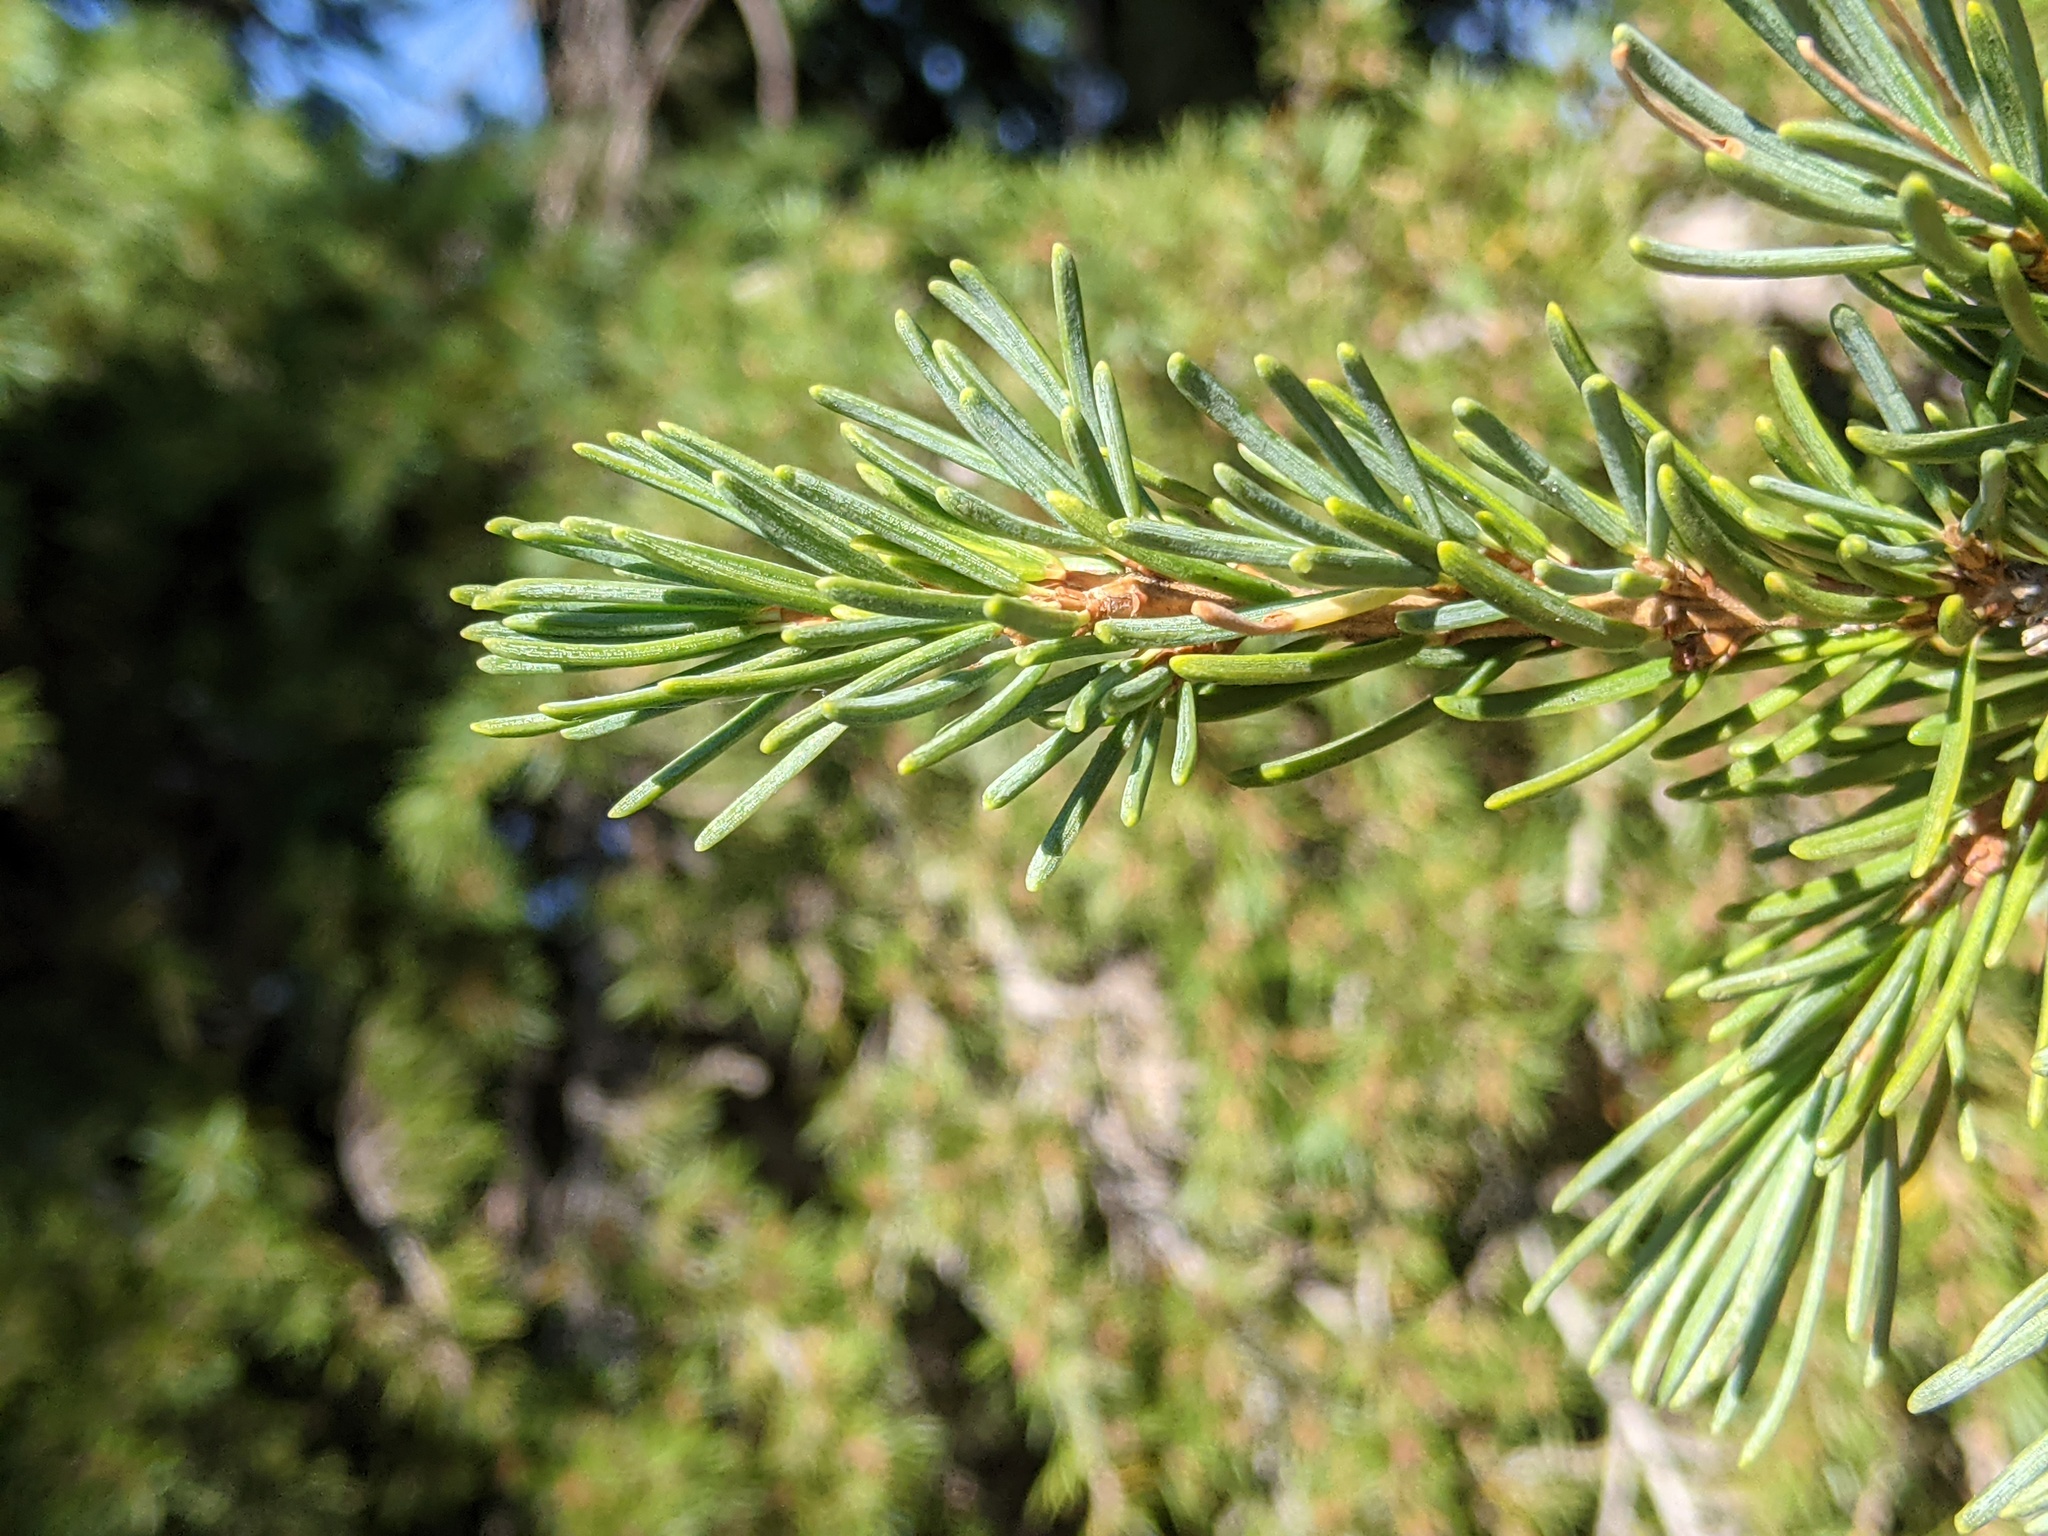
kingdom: Plantae
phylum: Tracheophyta
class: Pinopsida
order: Pinales
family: Pinaceae
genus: Tsuga
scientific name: Tsuga mertensiana
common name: Mountain hemlock
